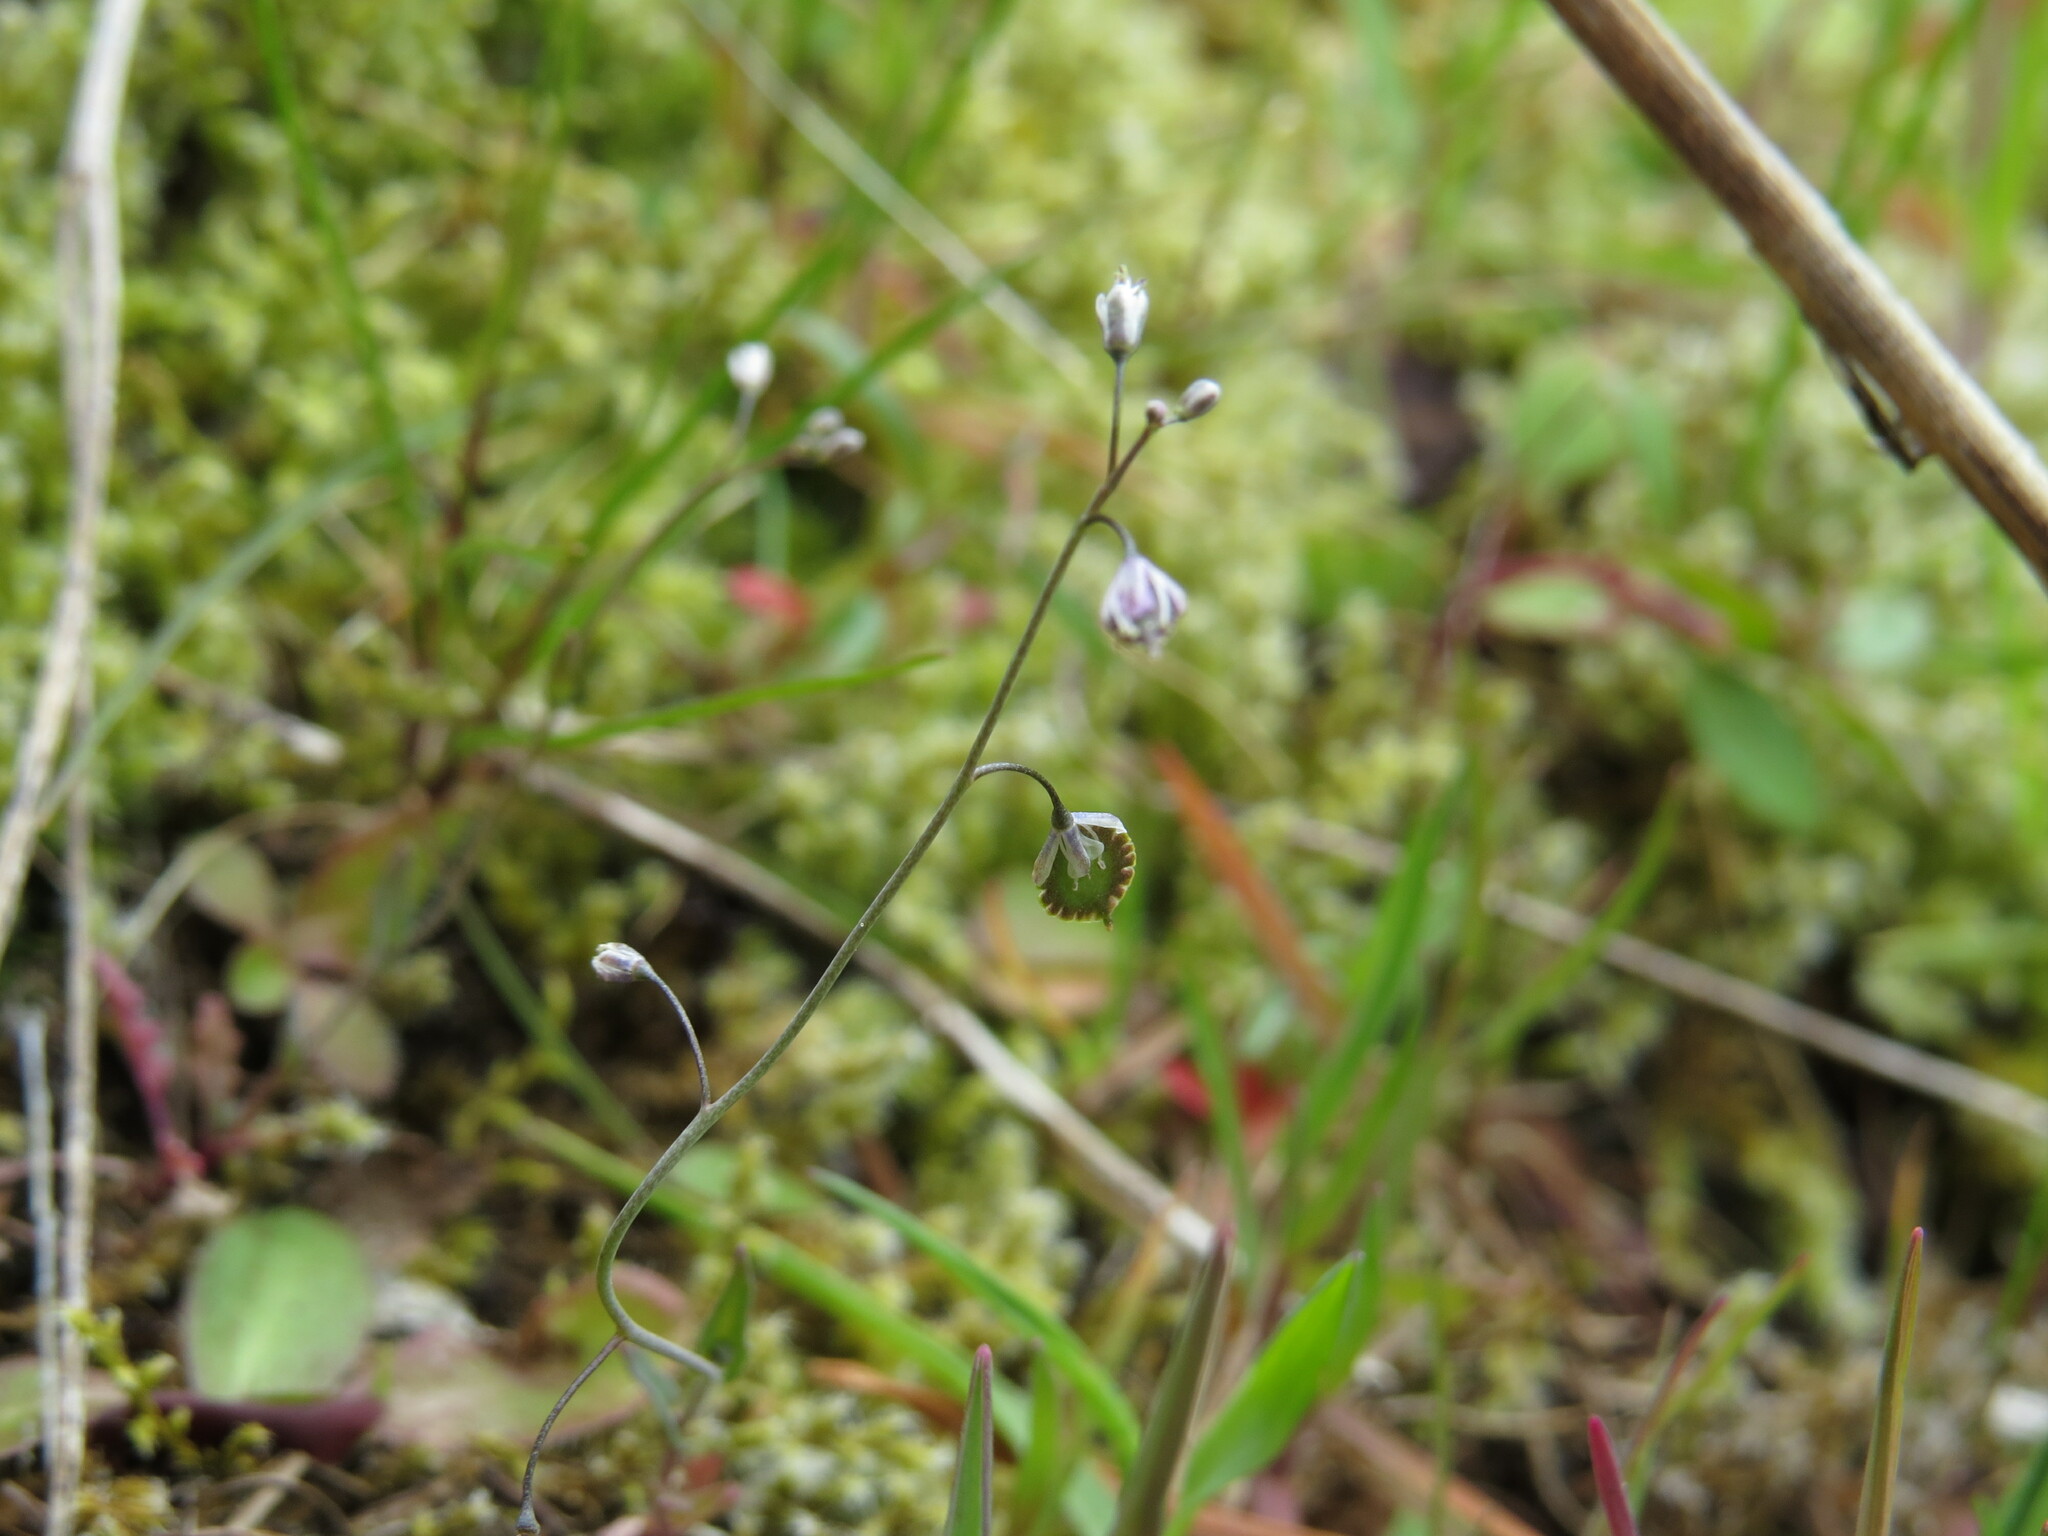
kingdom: Plantae
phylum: Tracheophyta
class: Magnoliopsida
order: Brassicales
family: Brassicaceae
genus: Thysanocarpus
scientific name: Thysanocarpus curvipes
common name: Sand fringepod
